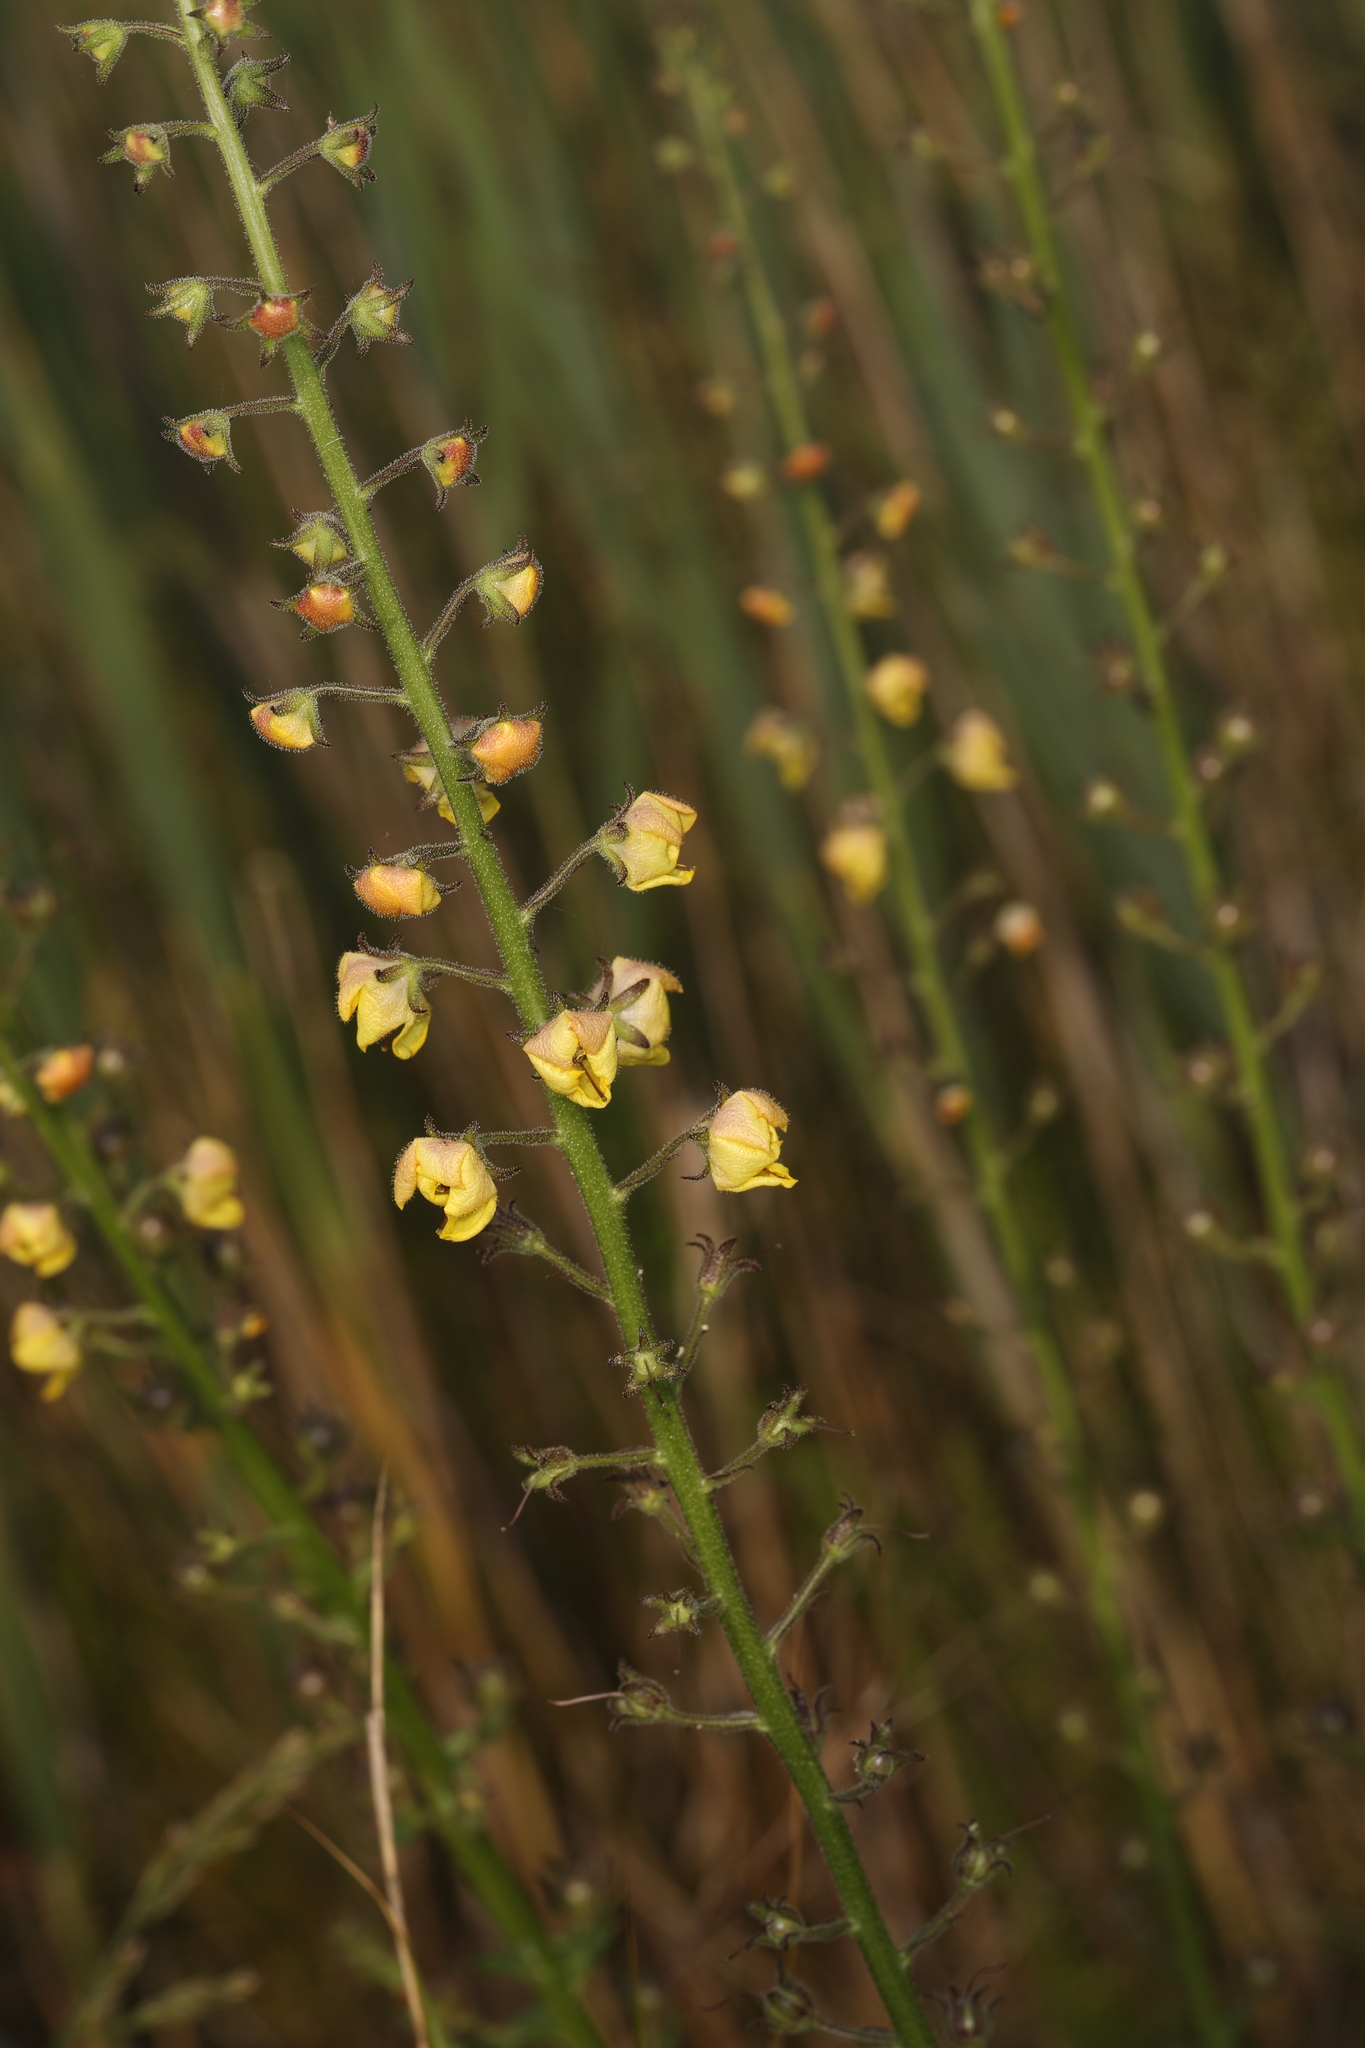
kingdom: Plantae
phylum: Tracheophyta
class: Magnoliopsida
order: Lamiales
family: Scrophulariaceae
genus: Verbascum
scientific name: Verbascum blattaria
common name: Moth mullein
